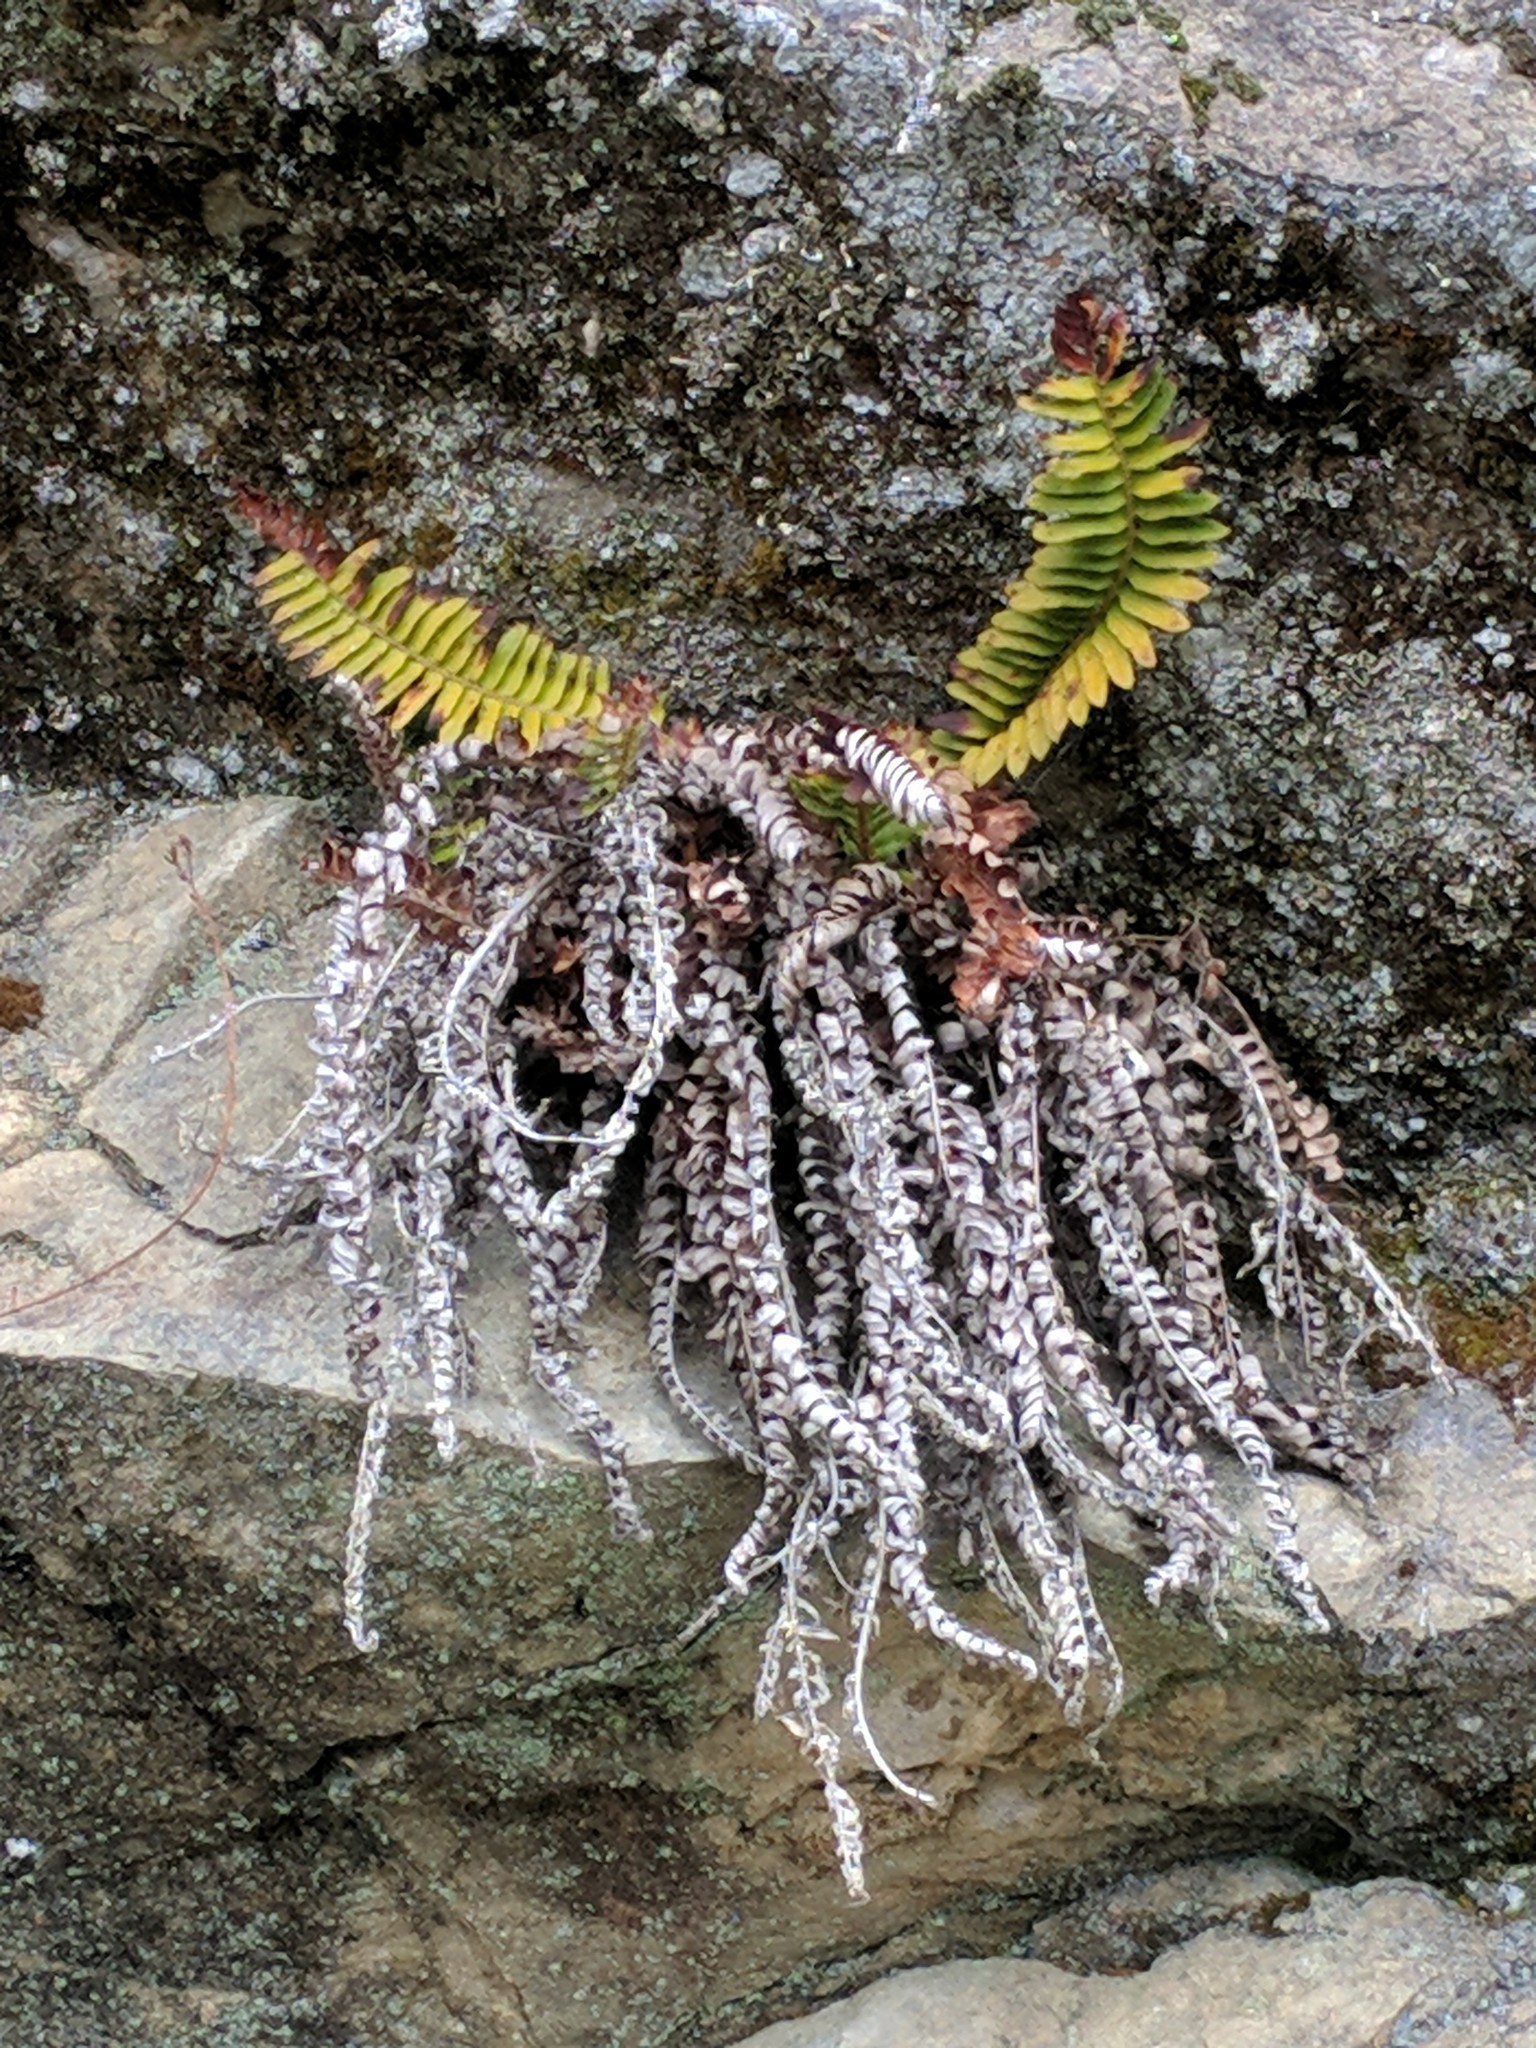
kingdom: Plantae
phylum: Tracheophyta
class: Polypodiopsida
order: Polypodiales
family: Dryopteridaceae
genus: Polystichum
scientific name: Polystichum imbricans
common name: Dwarf western sword fern
